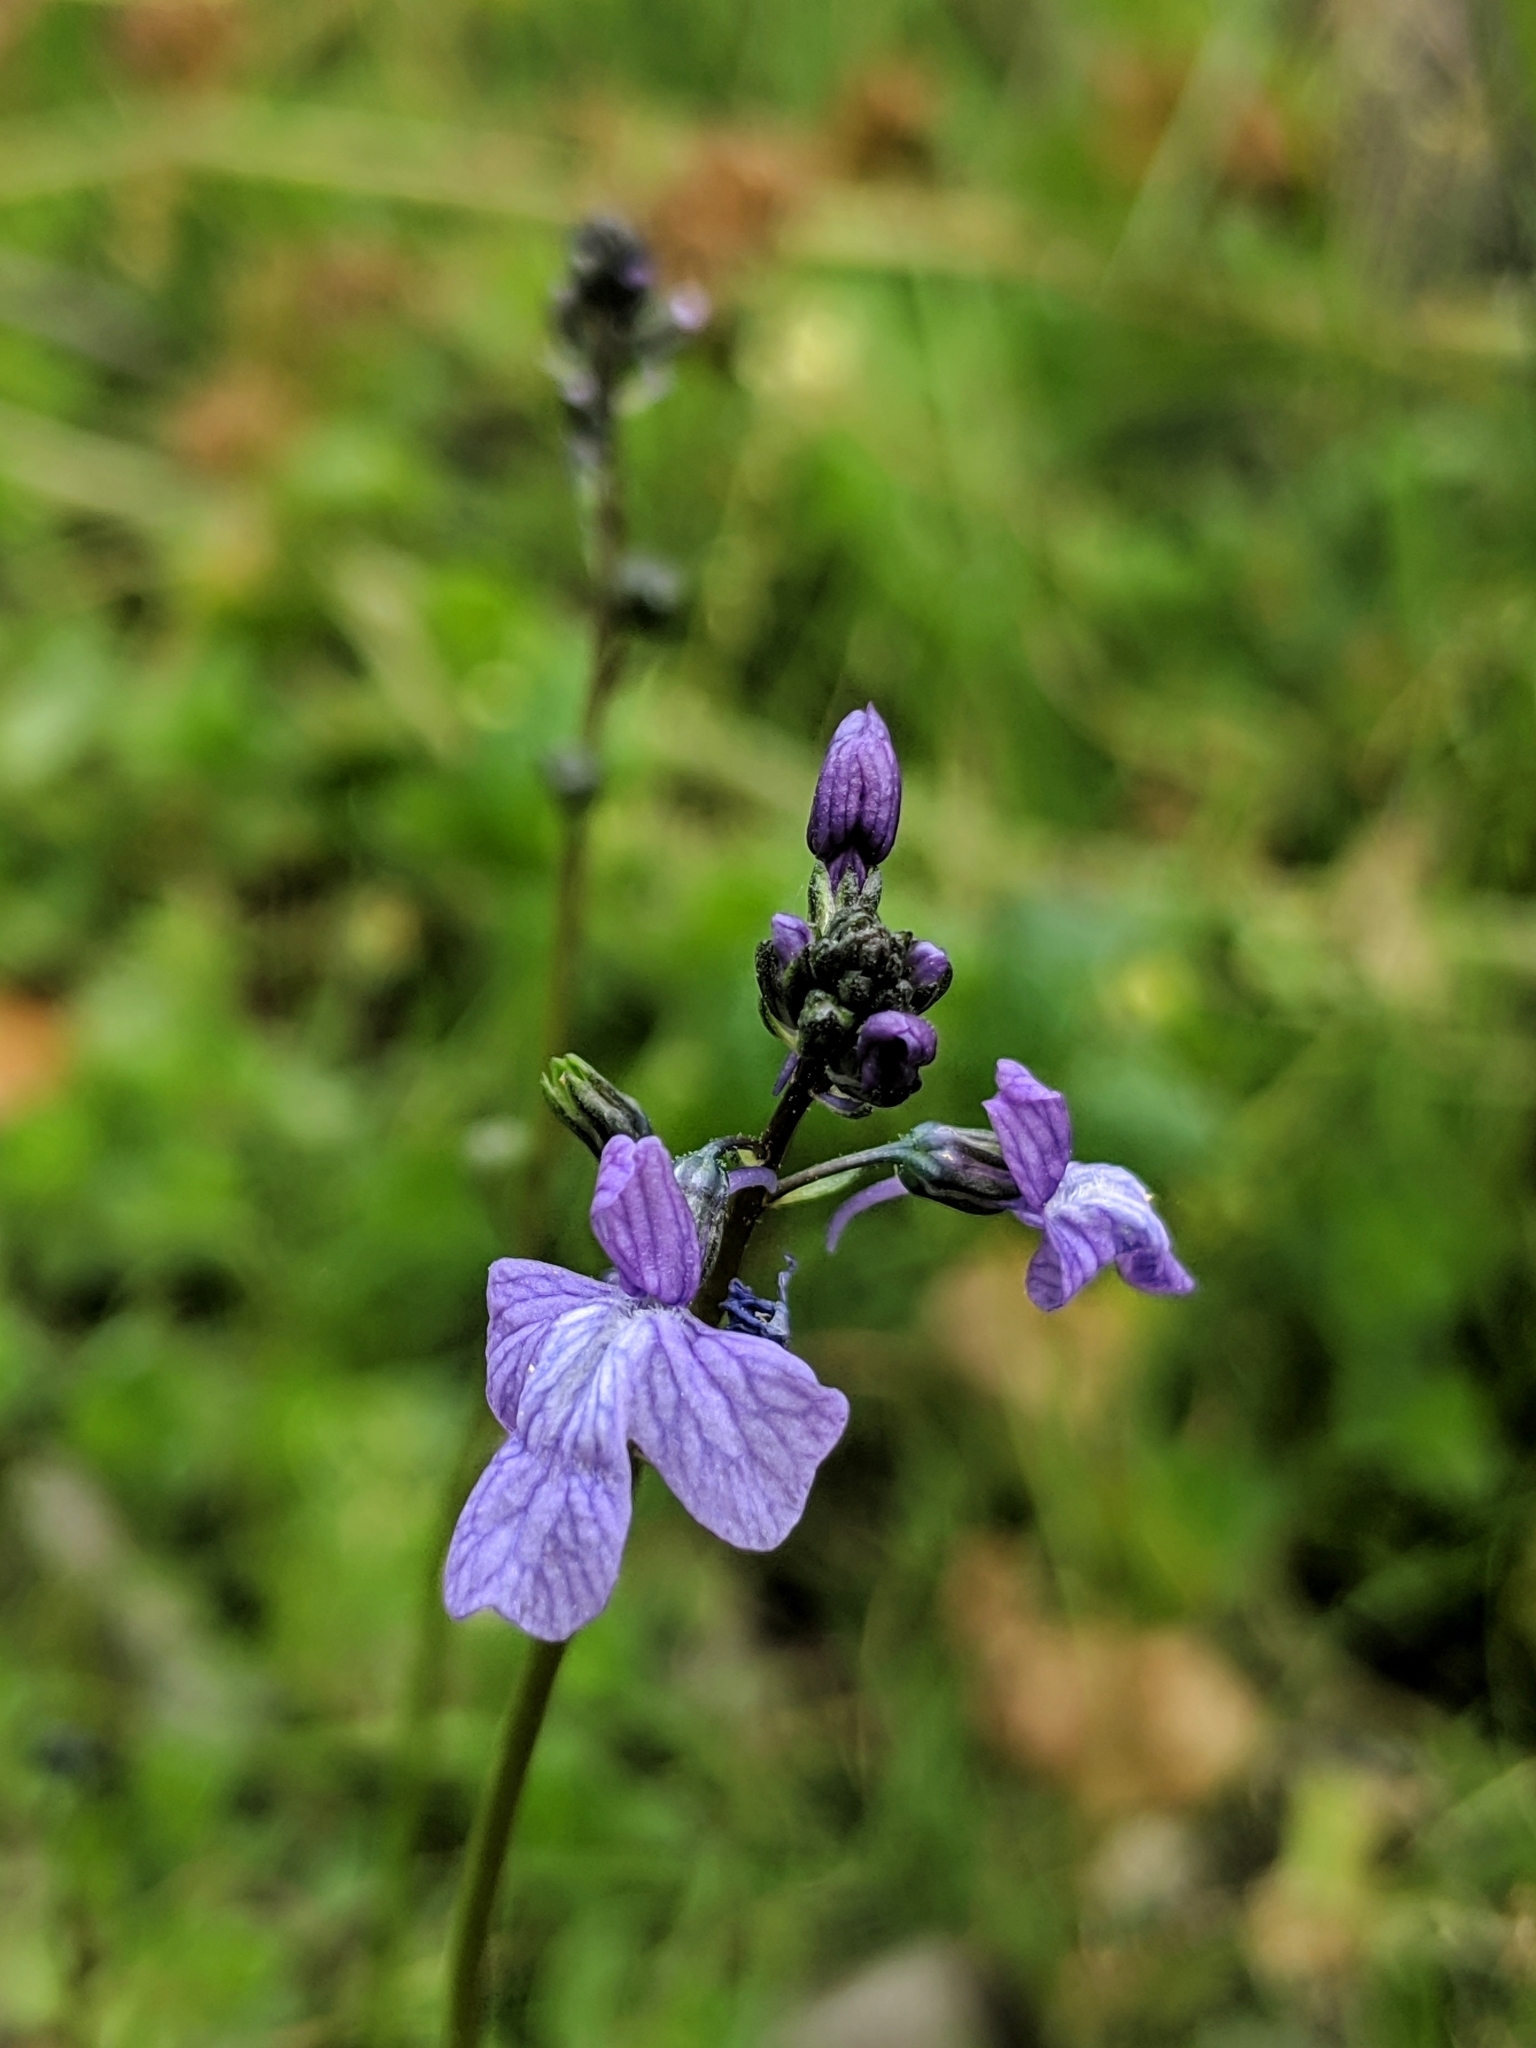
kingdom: Plantae
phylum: Tracheophyta
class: Magnoliopsida
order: Lamiales
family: Plantaginaceae
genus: Nuttallanthus
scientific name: Nuttallanthus texanus
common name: Texas toadflax
